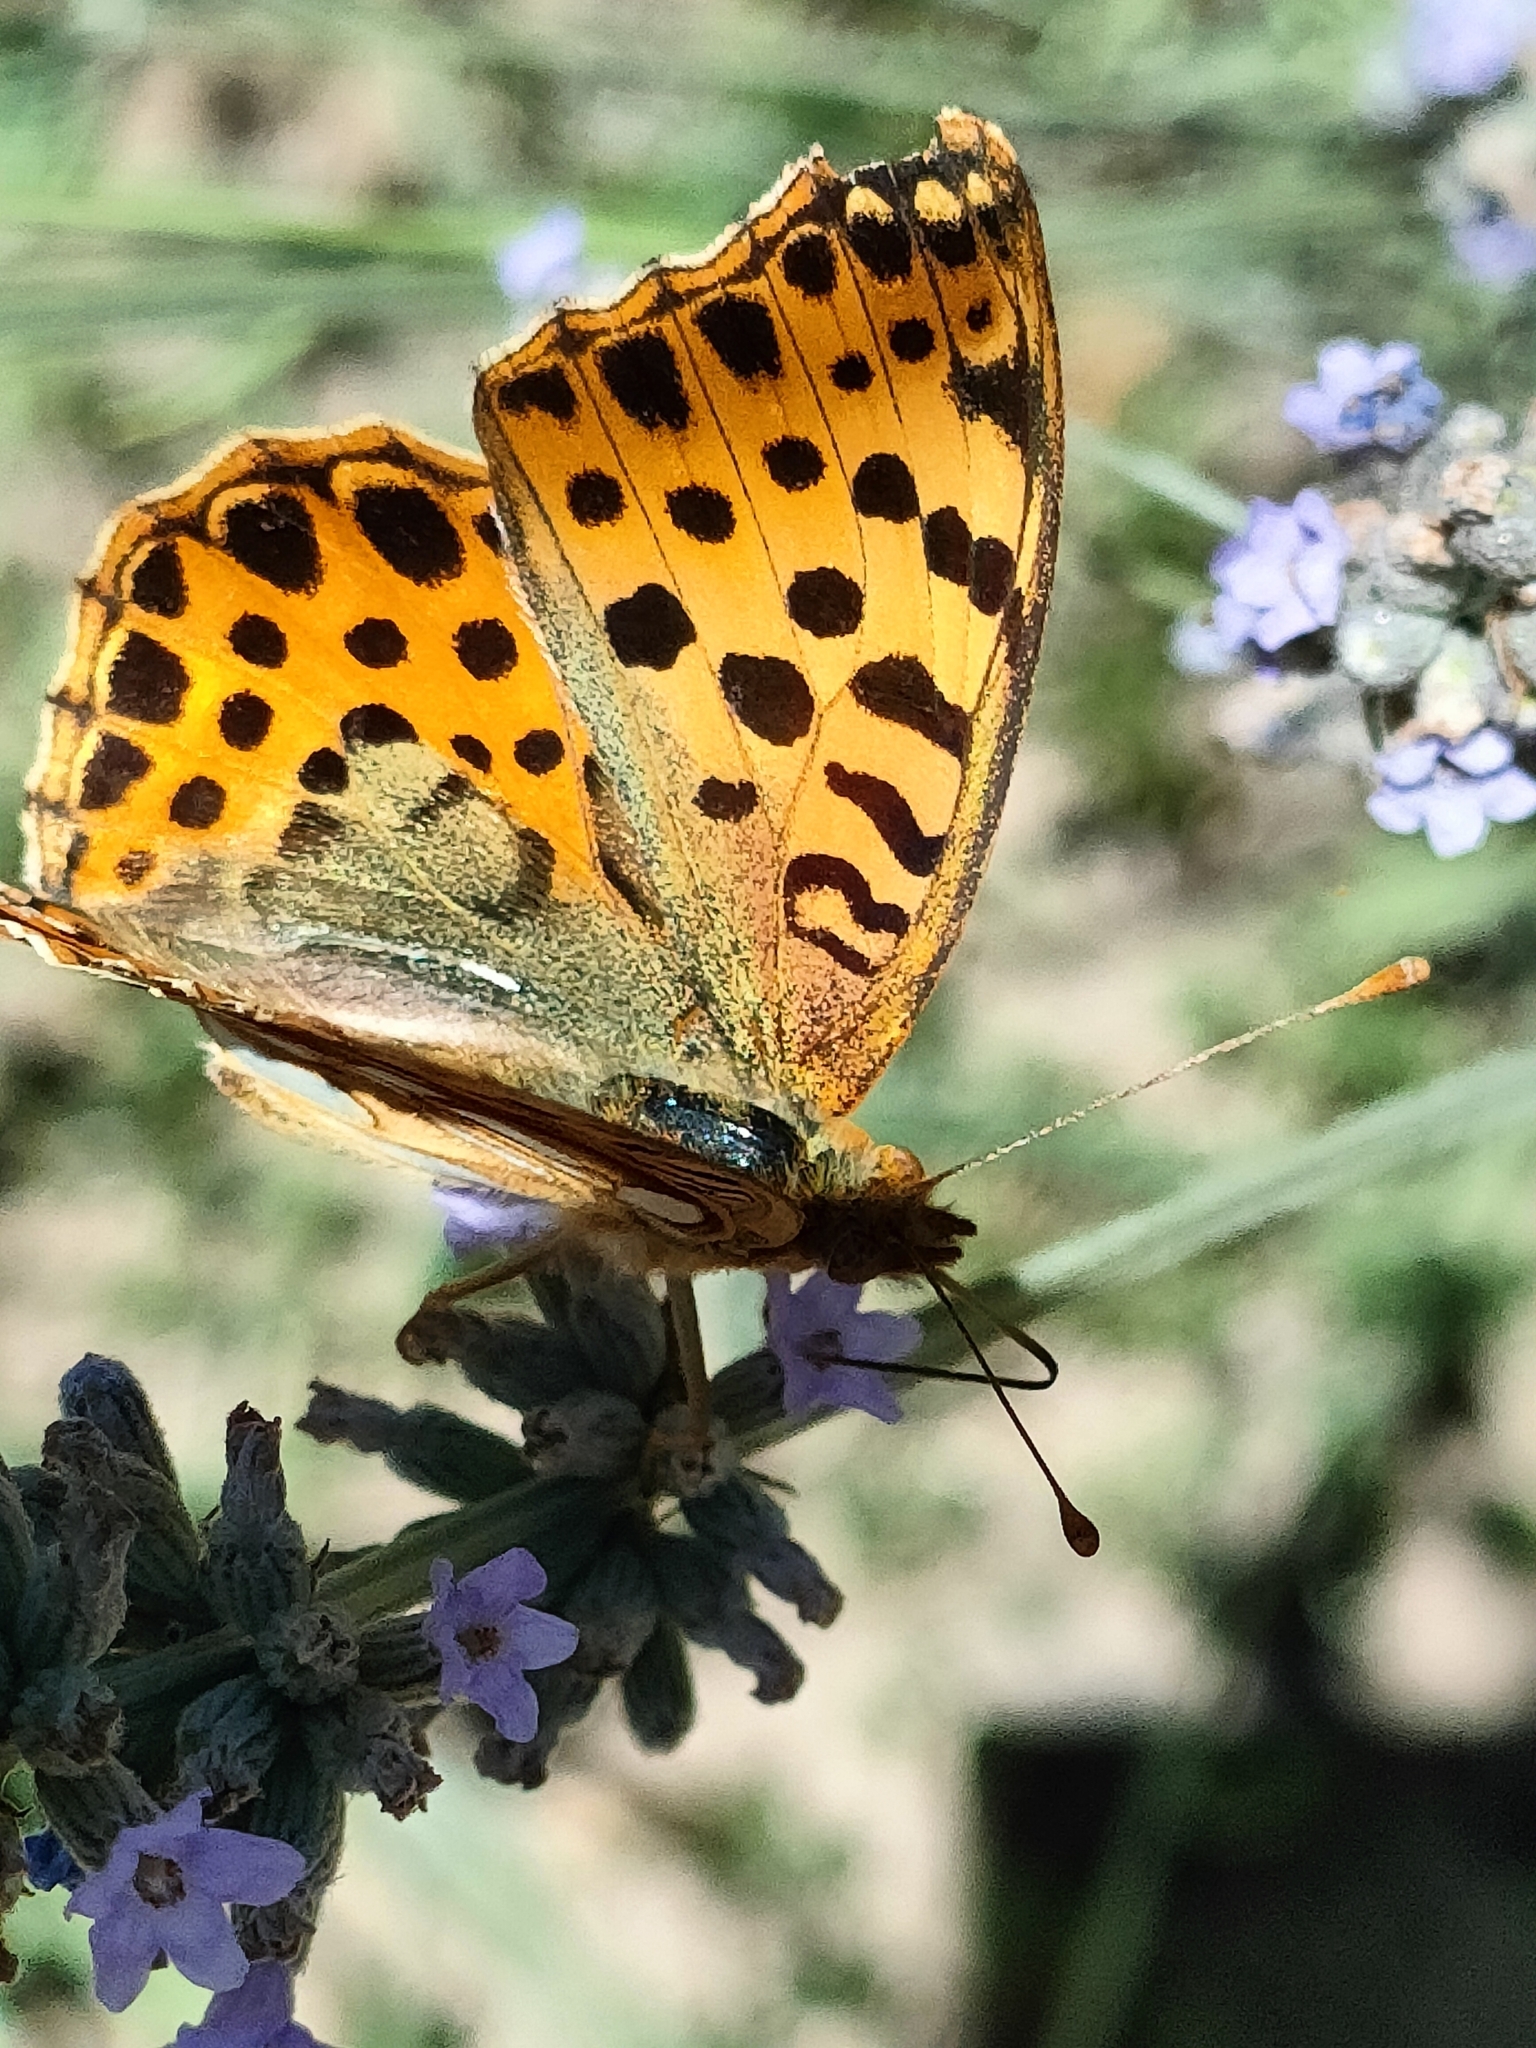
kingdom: Animalia
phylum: Arthropoda
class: Insecta
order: Lepidoptera
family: Nymphalidae
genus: Issoria
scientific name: Issoria lathonia
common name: Queen of spain fritillary
